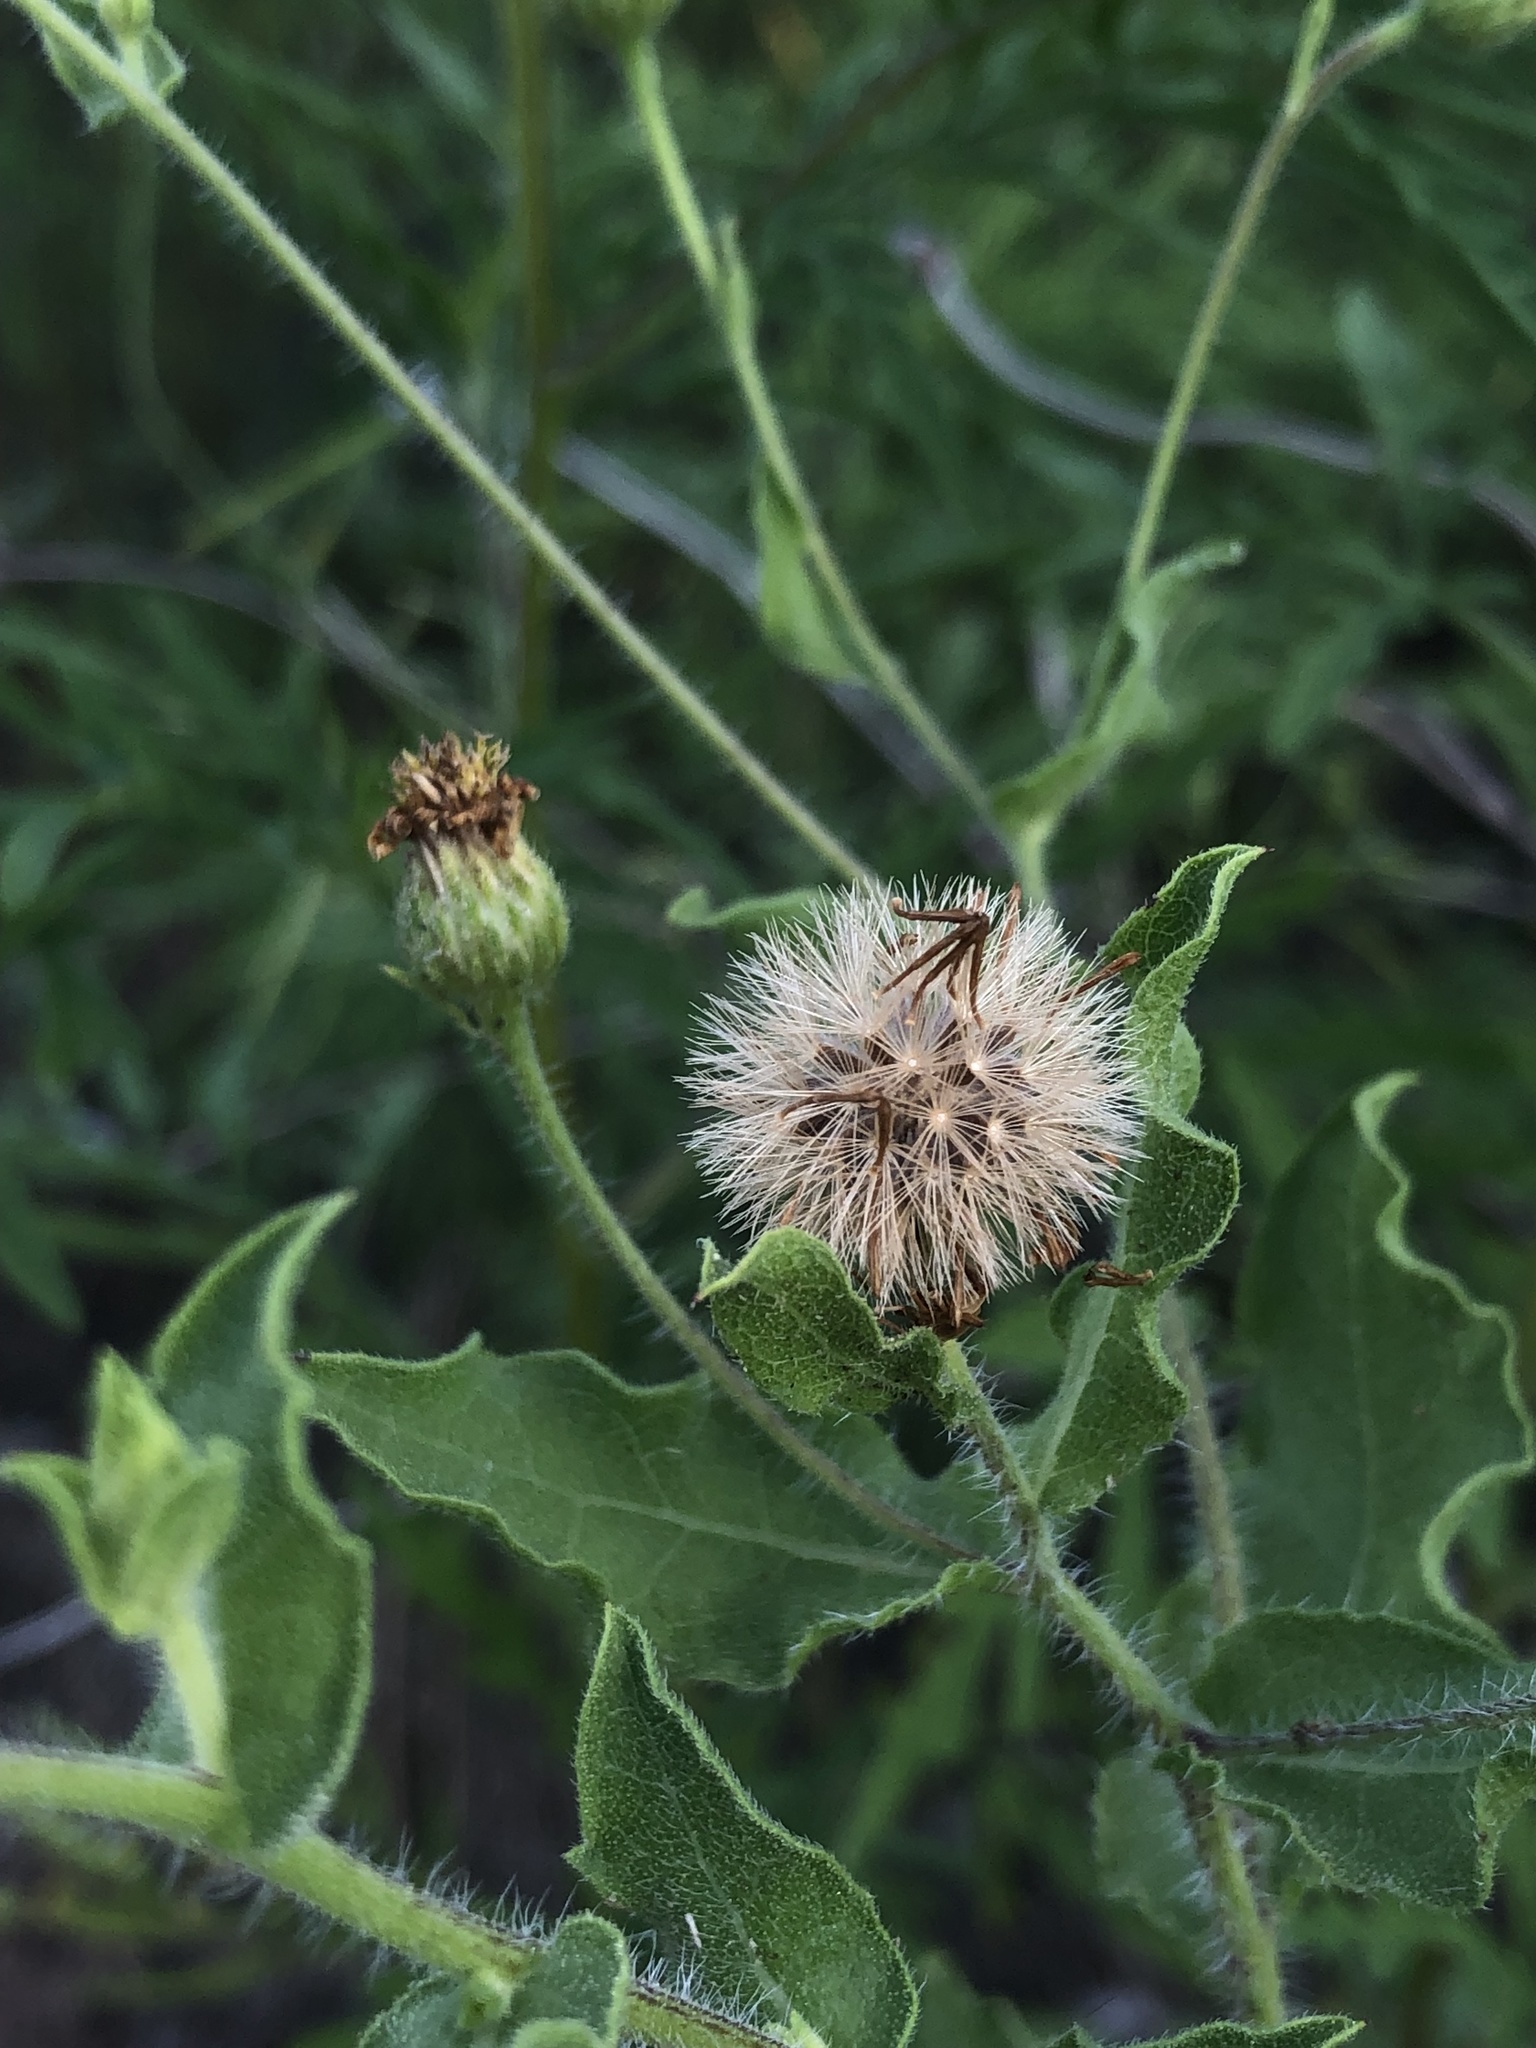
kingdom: Plantae
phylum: Tracheophyta
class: Magnoliopsida
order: Asterales
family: Asteraceae
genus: Heterotheca
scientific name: Heterotheca subaxillaris
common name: Camphorweed
